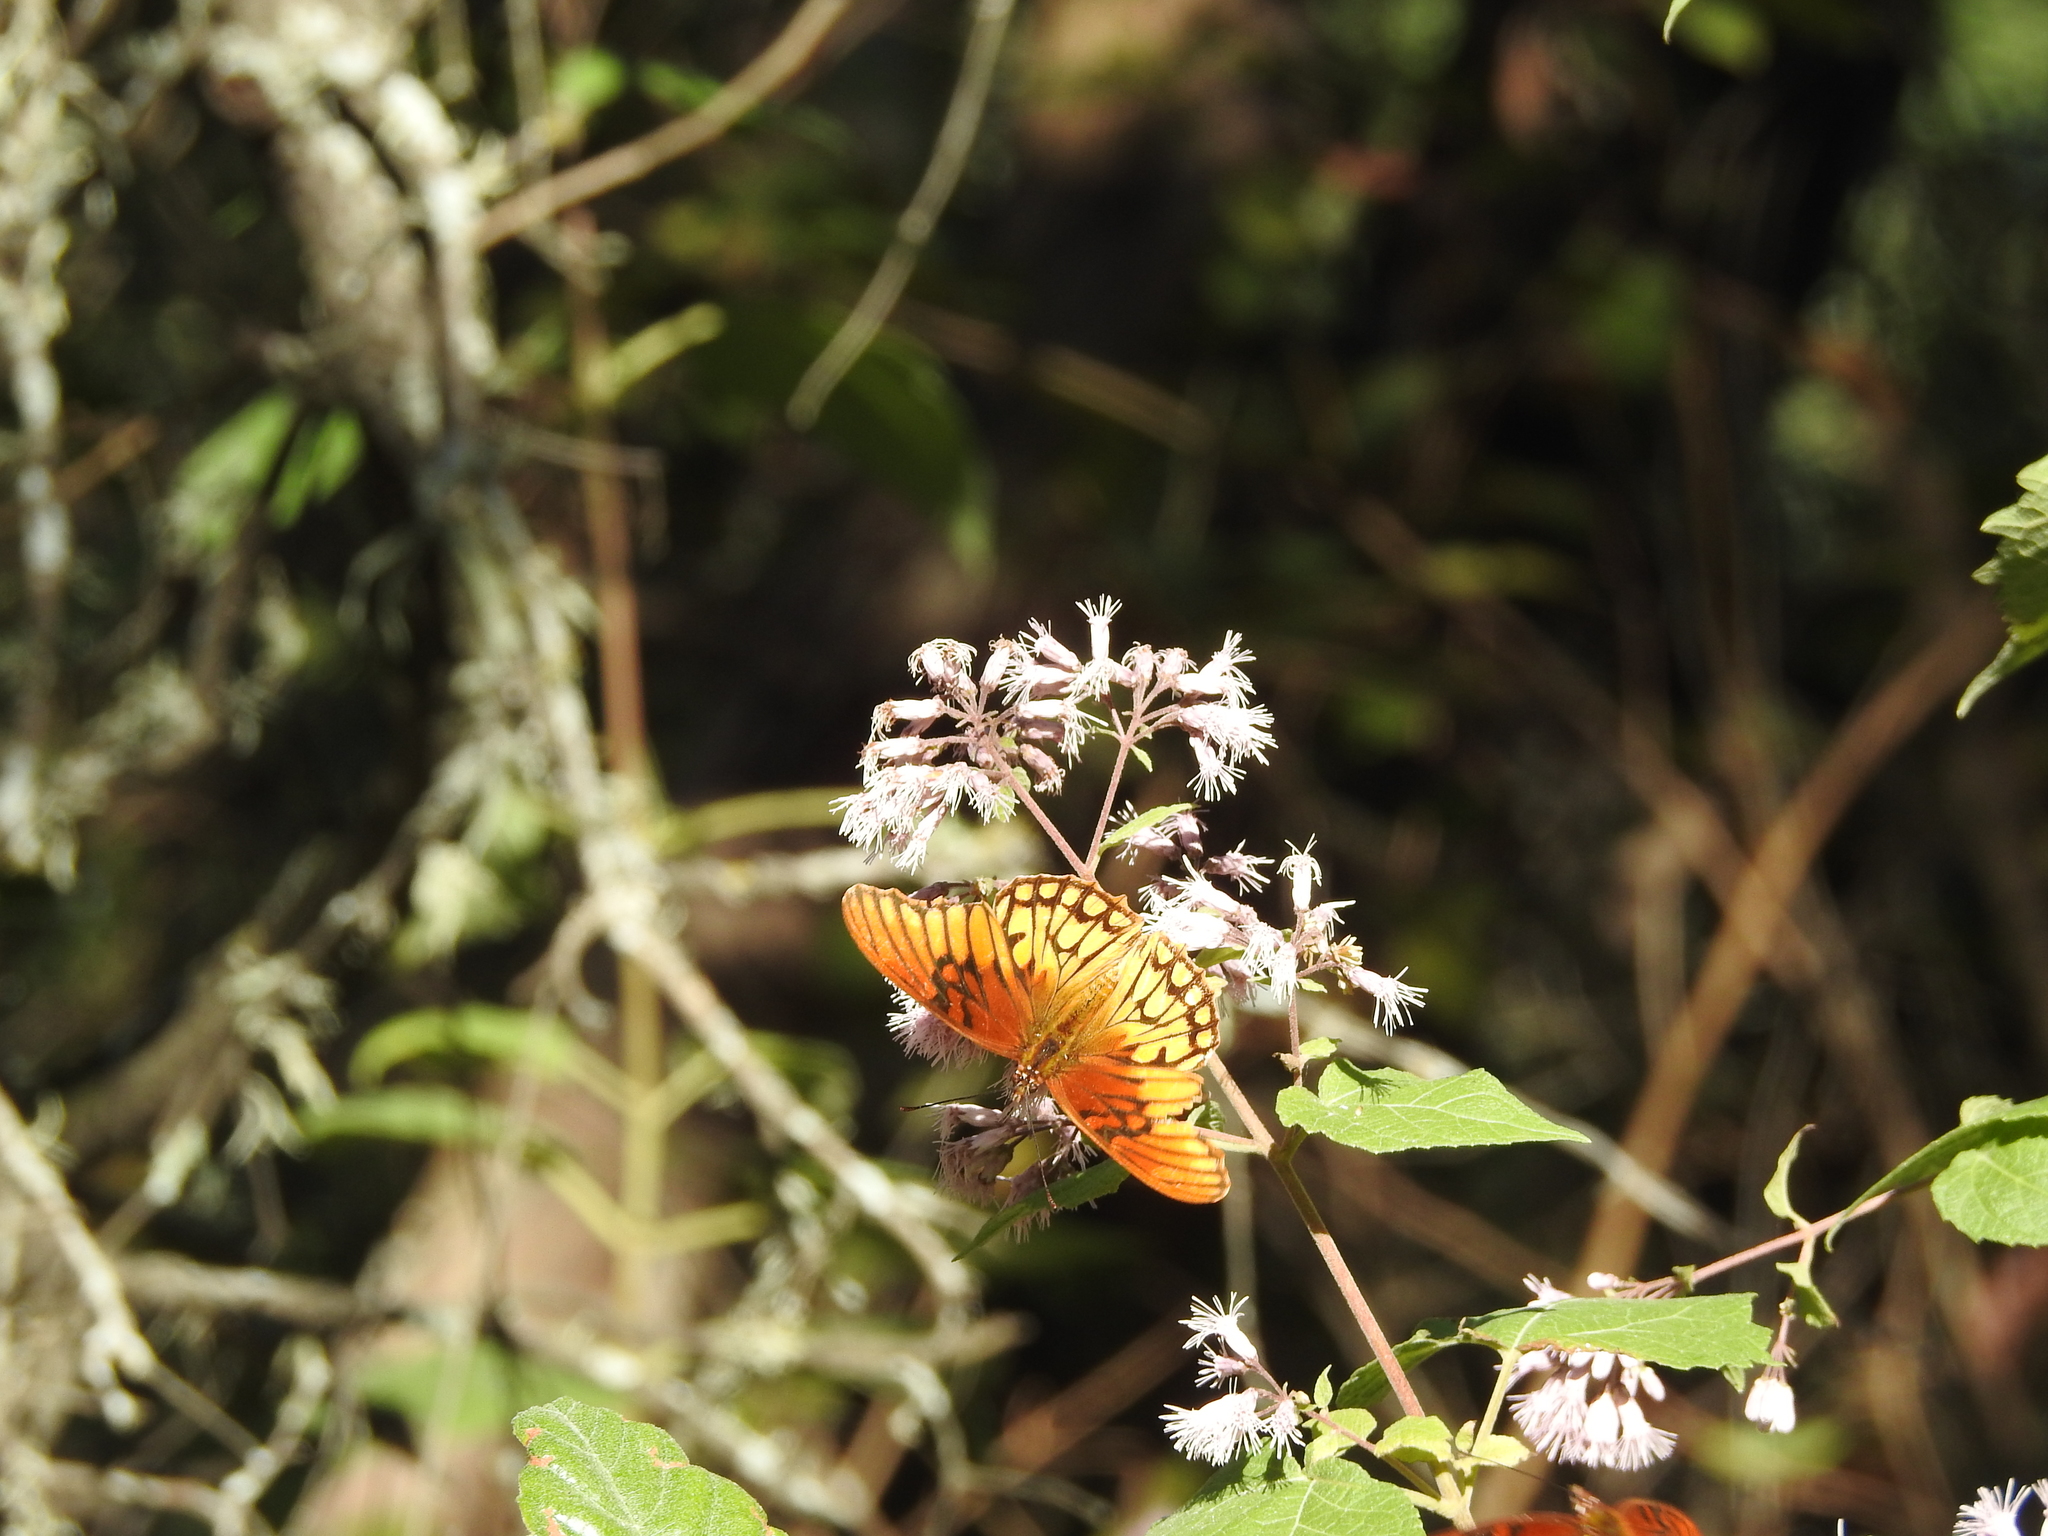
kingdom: Animalia
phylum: Arthropoda
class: Insecta
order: Lepidoptera
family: Nymphalidae
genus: Dione
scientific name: Dione moneta
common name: Mexican silverspot
